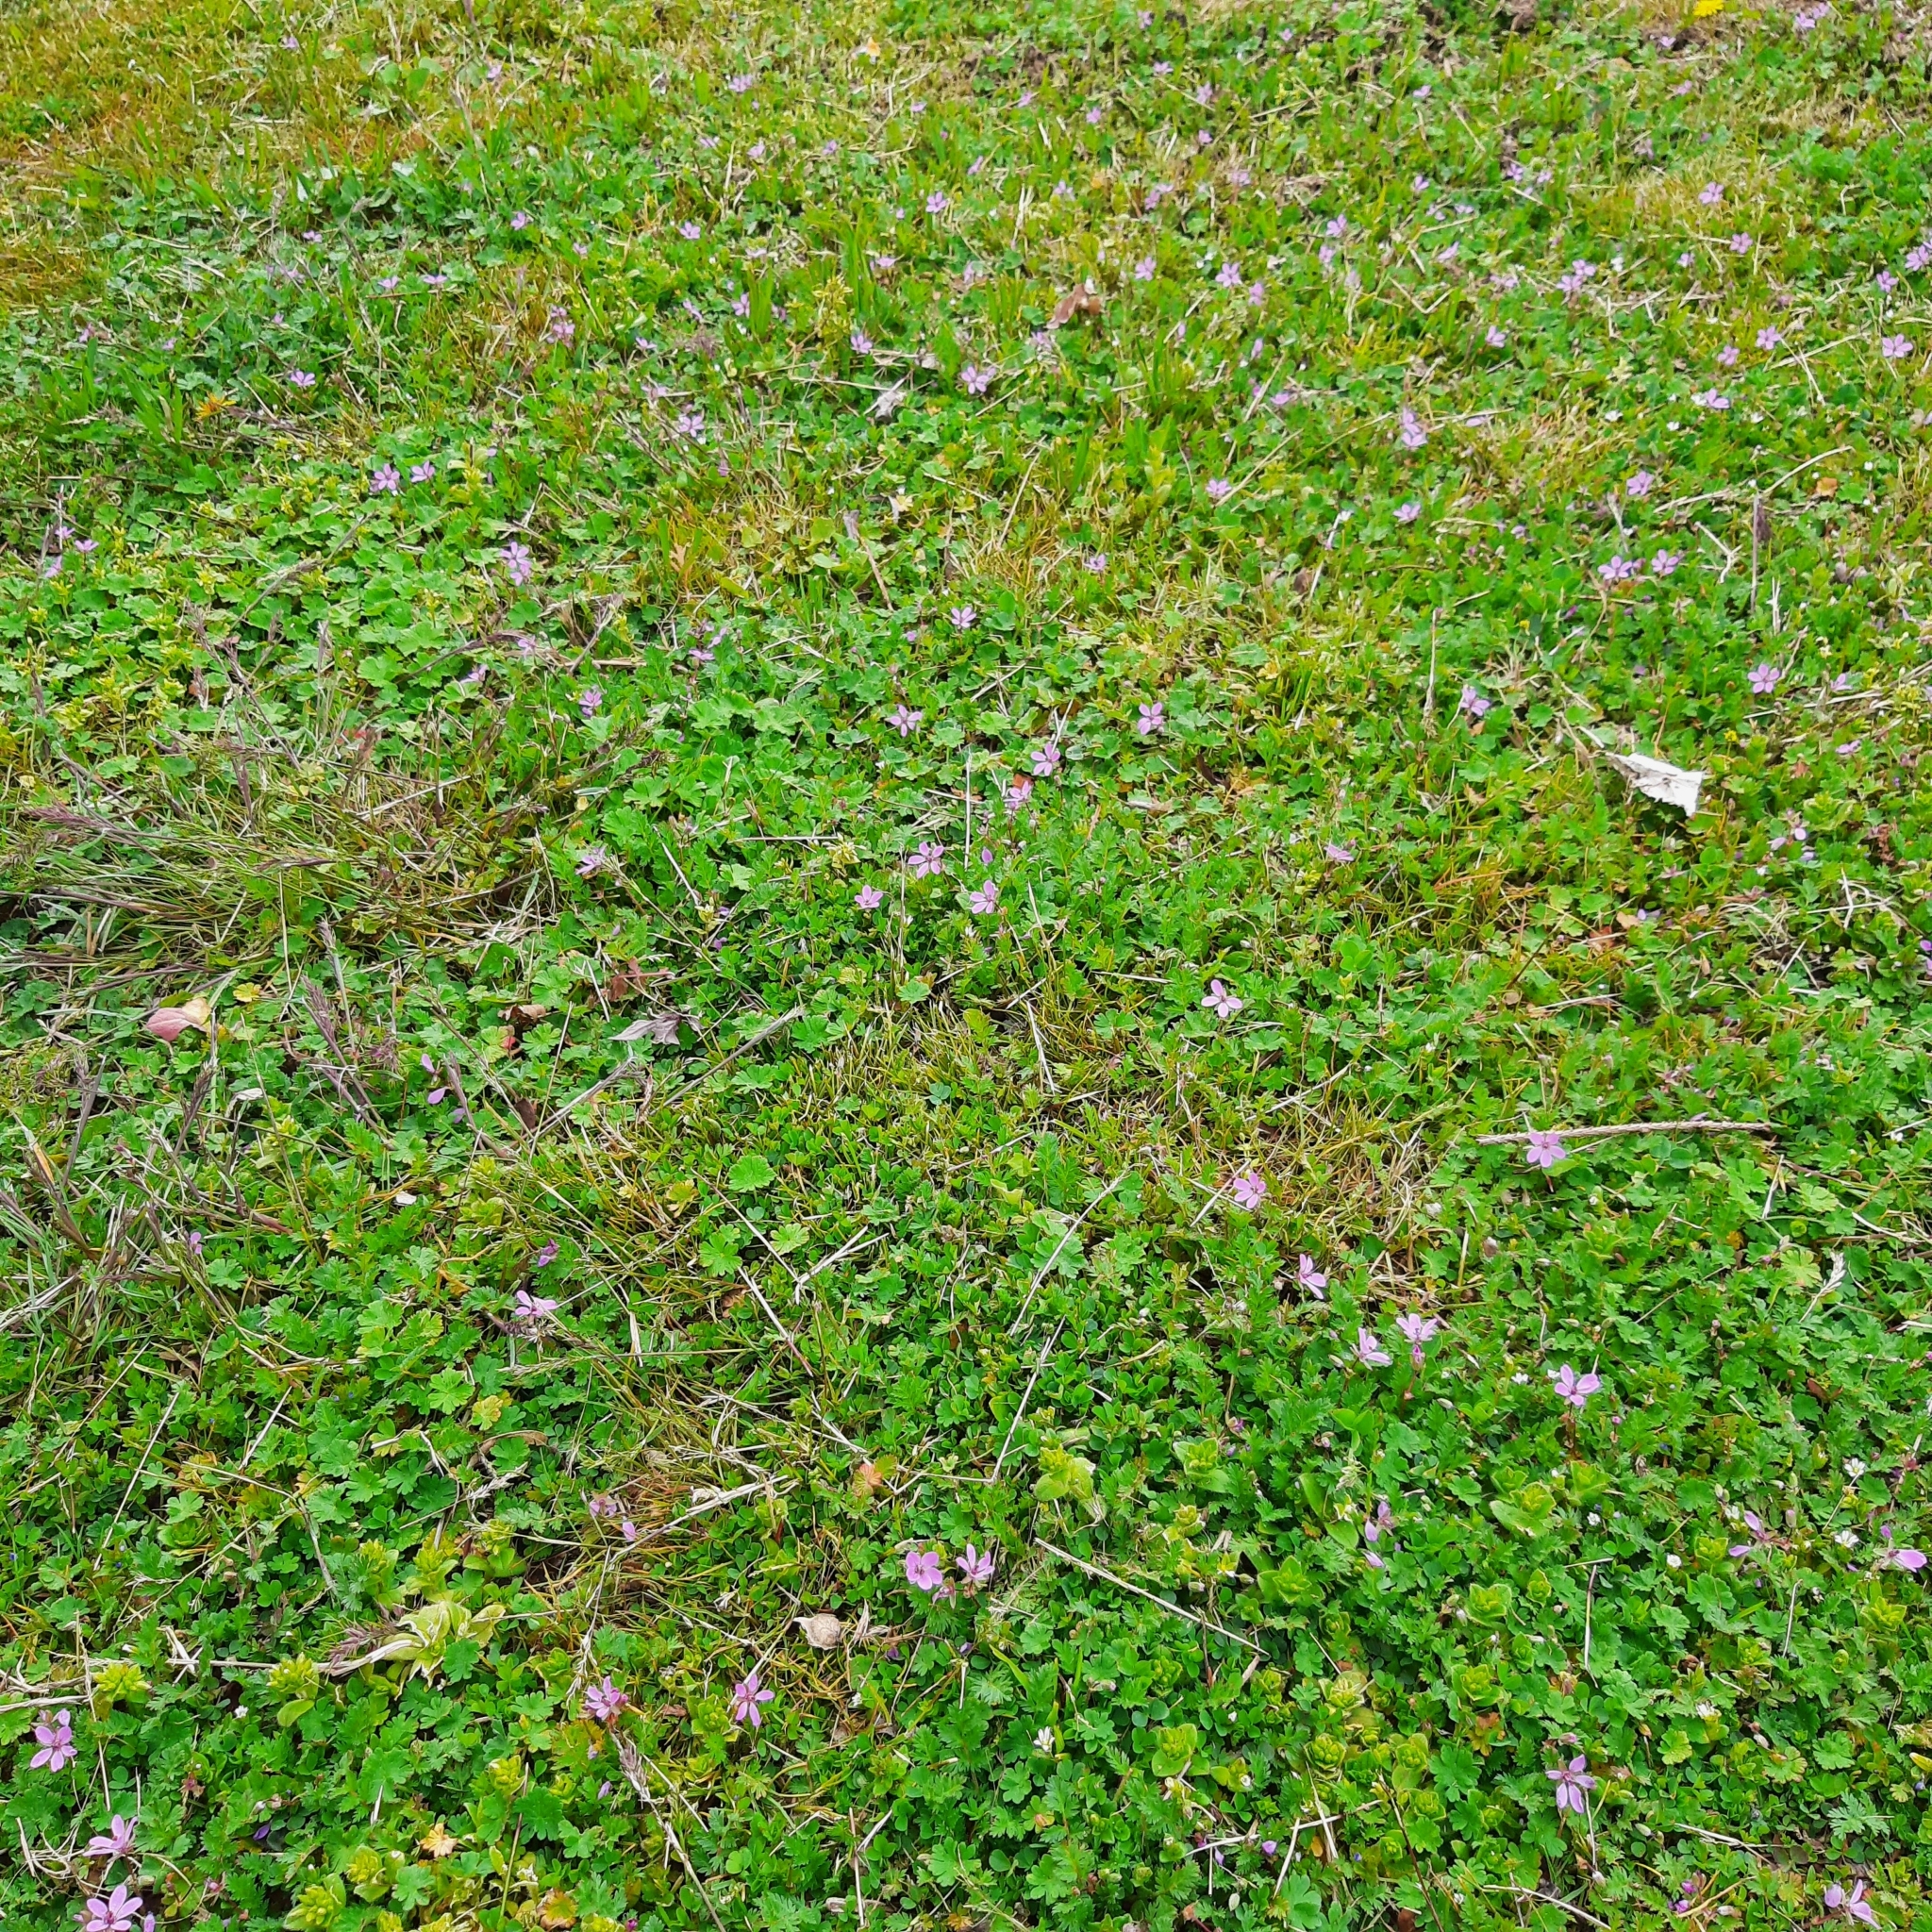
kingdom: Plantae
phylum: Tracheophyta
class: Magnoliopsida
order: Geraniales
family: Geraniaceae
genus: Erodium
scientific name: Erodium cicutarium
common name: Common stork's-bill
